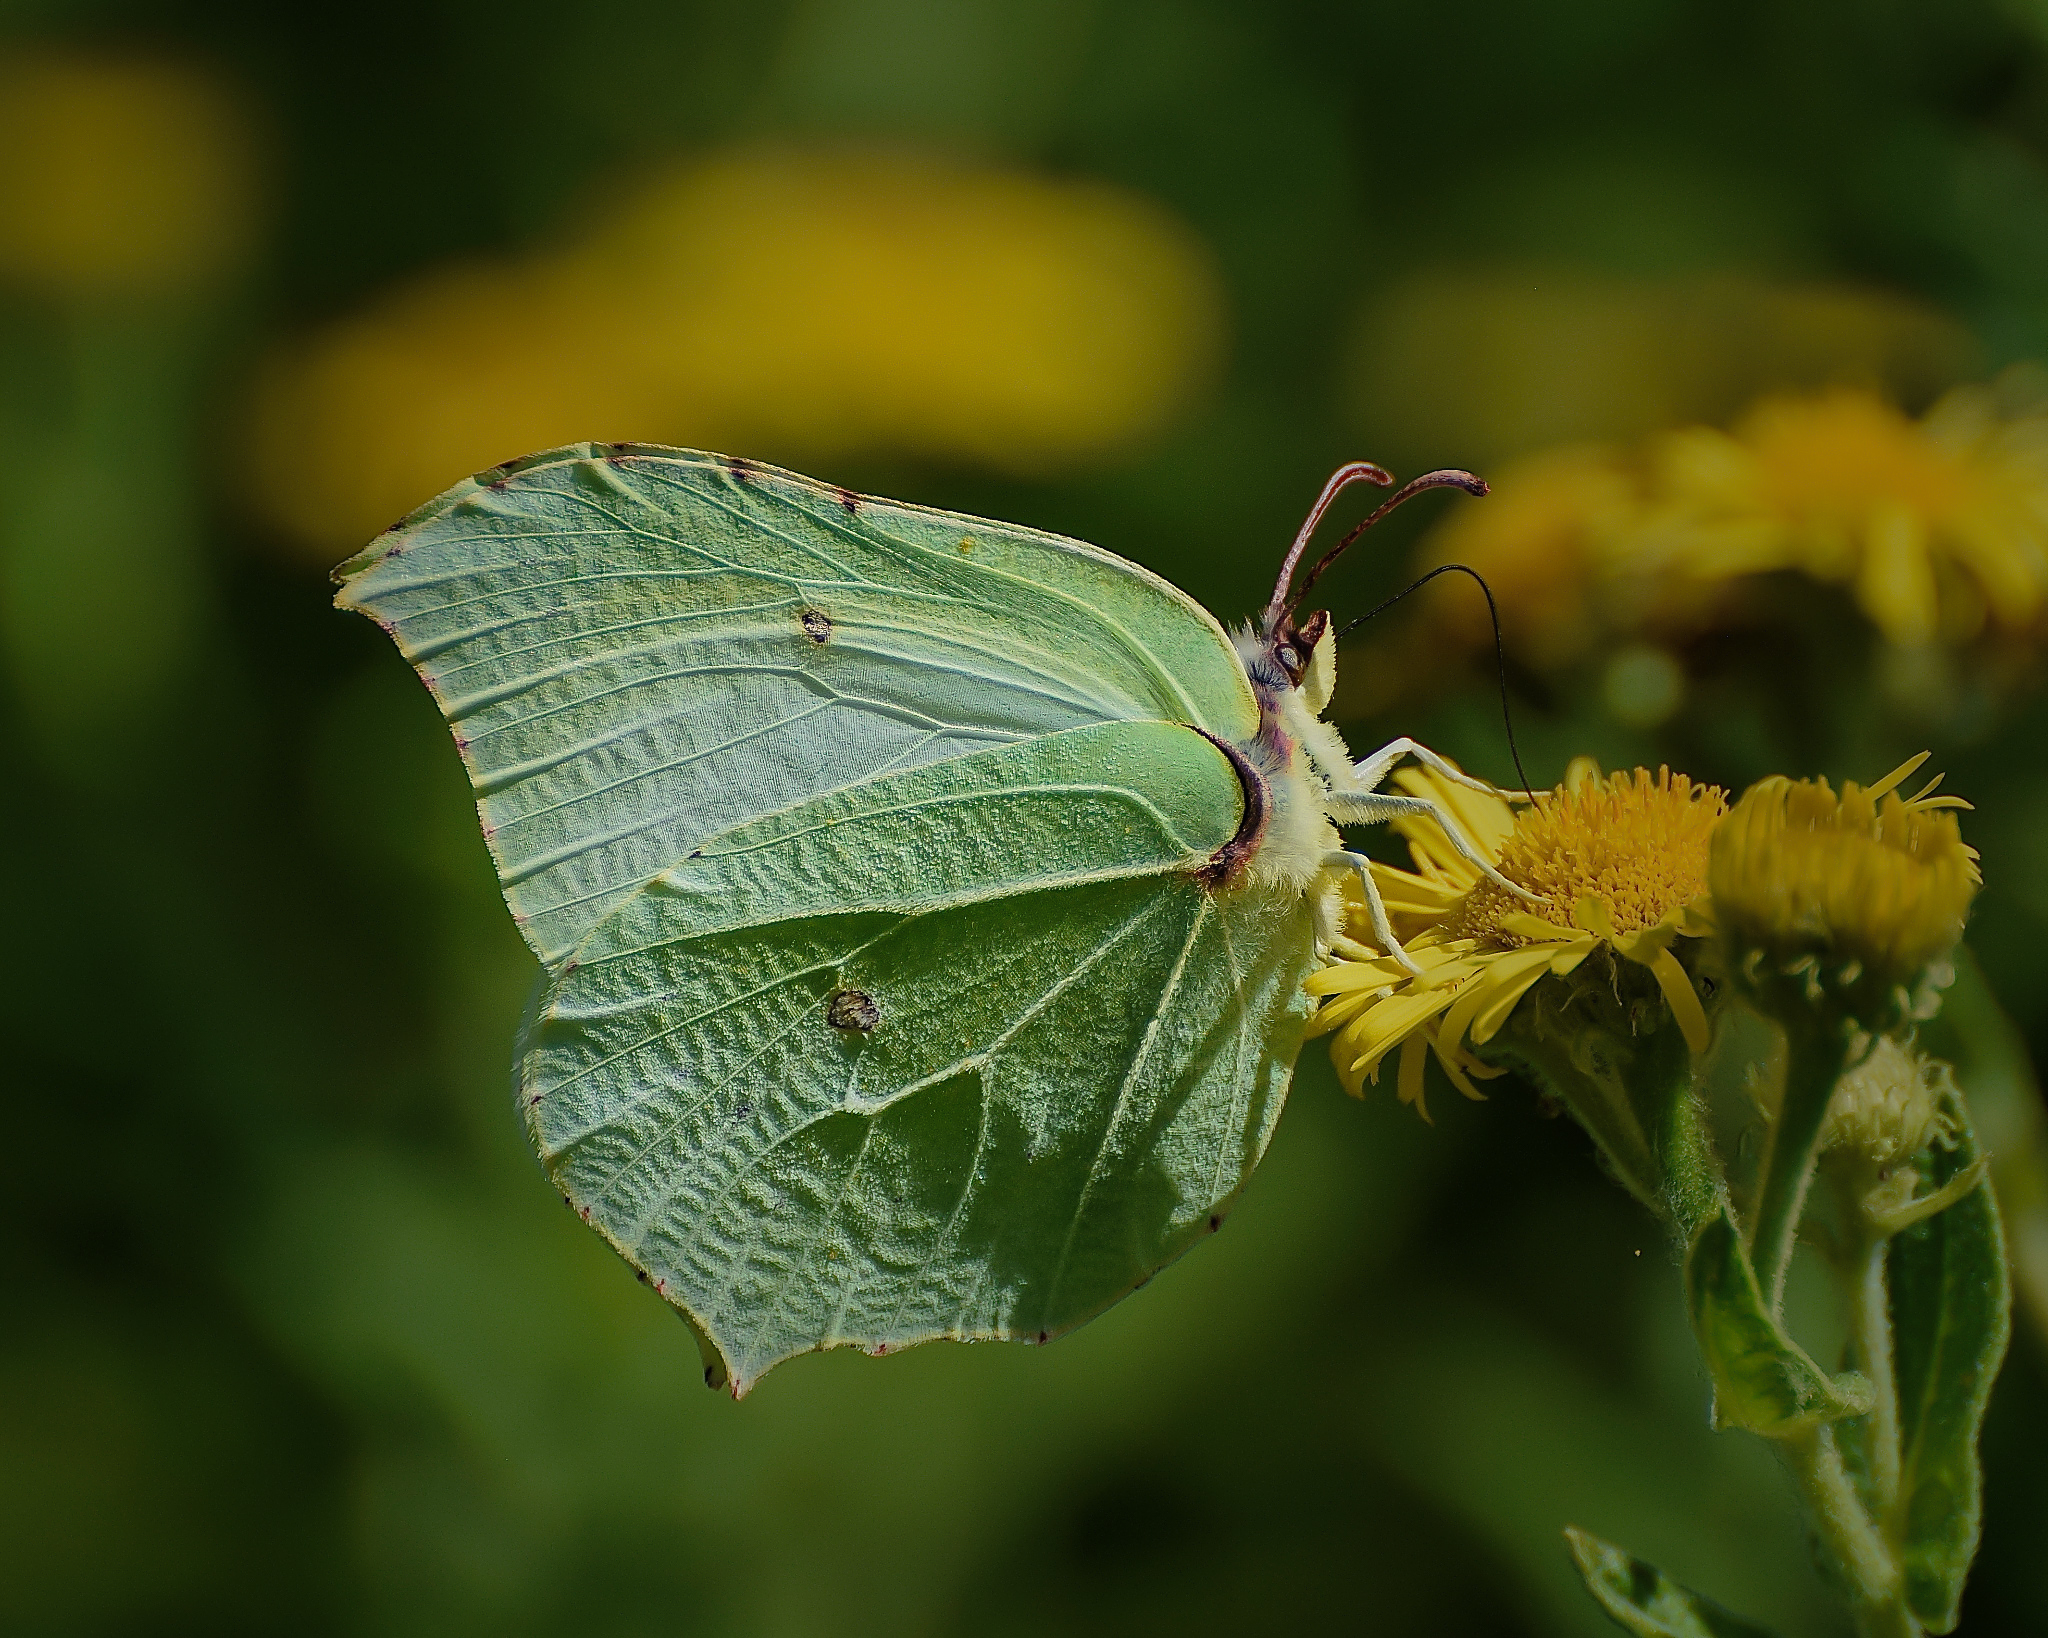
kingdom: Animalia
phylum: Arthropoda
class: Insecta
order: Lepidoptera
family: Pieridae
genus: Gonepteryx
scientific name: Gonepteryx rhamni
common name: Brimstone
